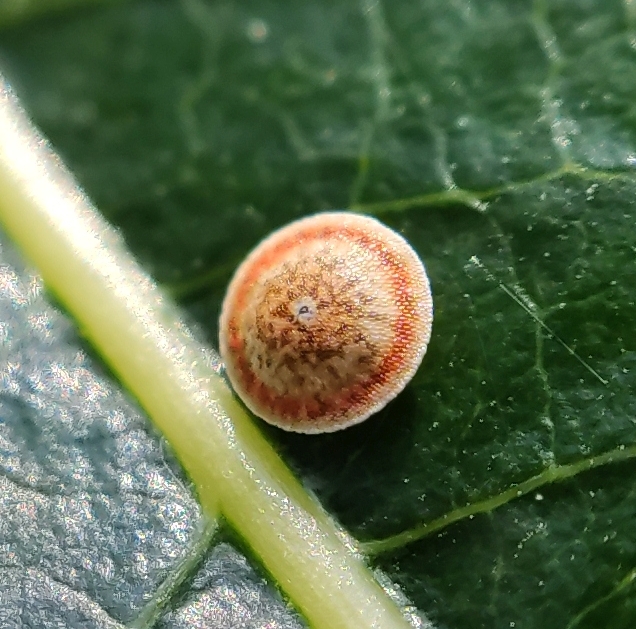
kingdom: Animalia
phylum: Arthropoda
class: Insecta
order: Lepidoptera
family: Notodontidae
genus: Cerura
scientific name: Cerura erminea
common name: Lesser puss moth
